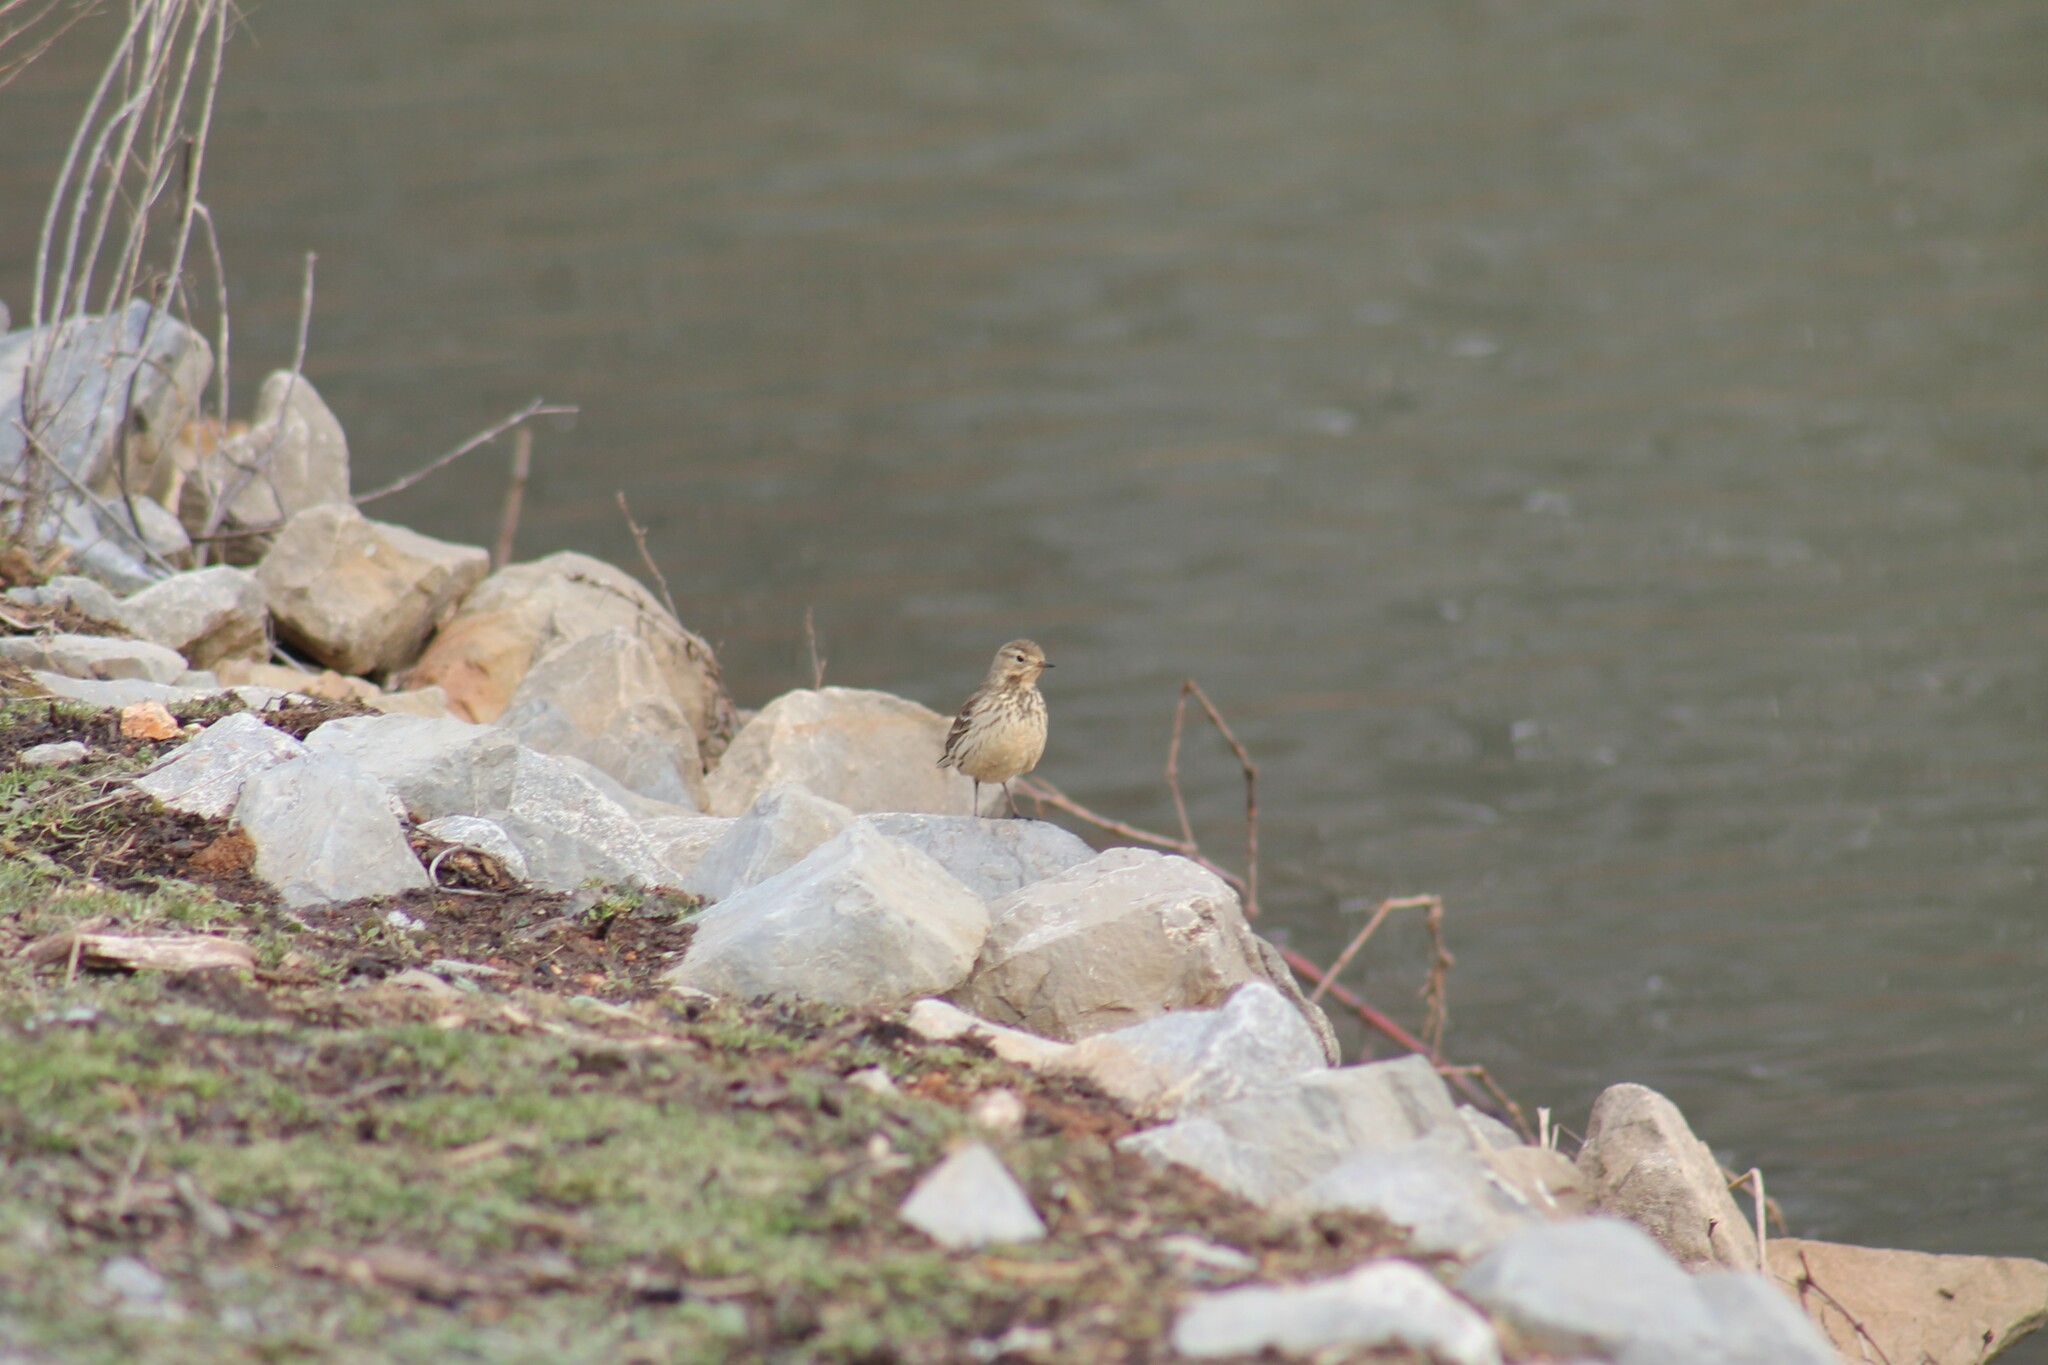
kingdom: Animalia
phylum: Chordata
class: Aves
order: Passeriformes
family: Motacillidae
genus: Anthus
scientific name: Anthus rubescens
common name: Buff-bellied pipit
